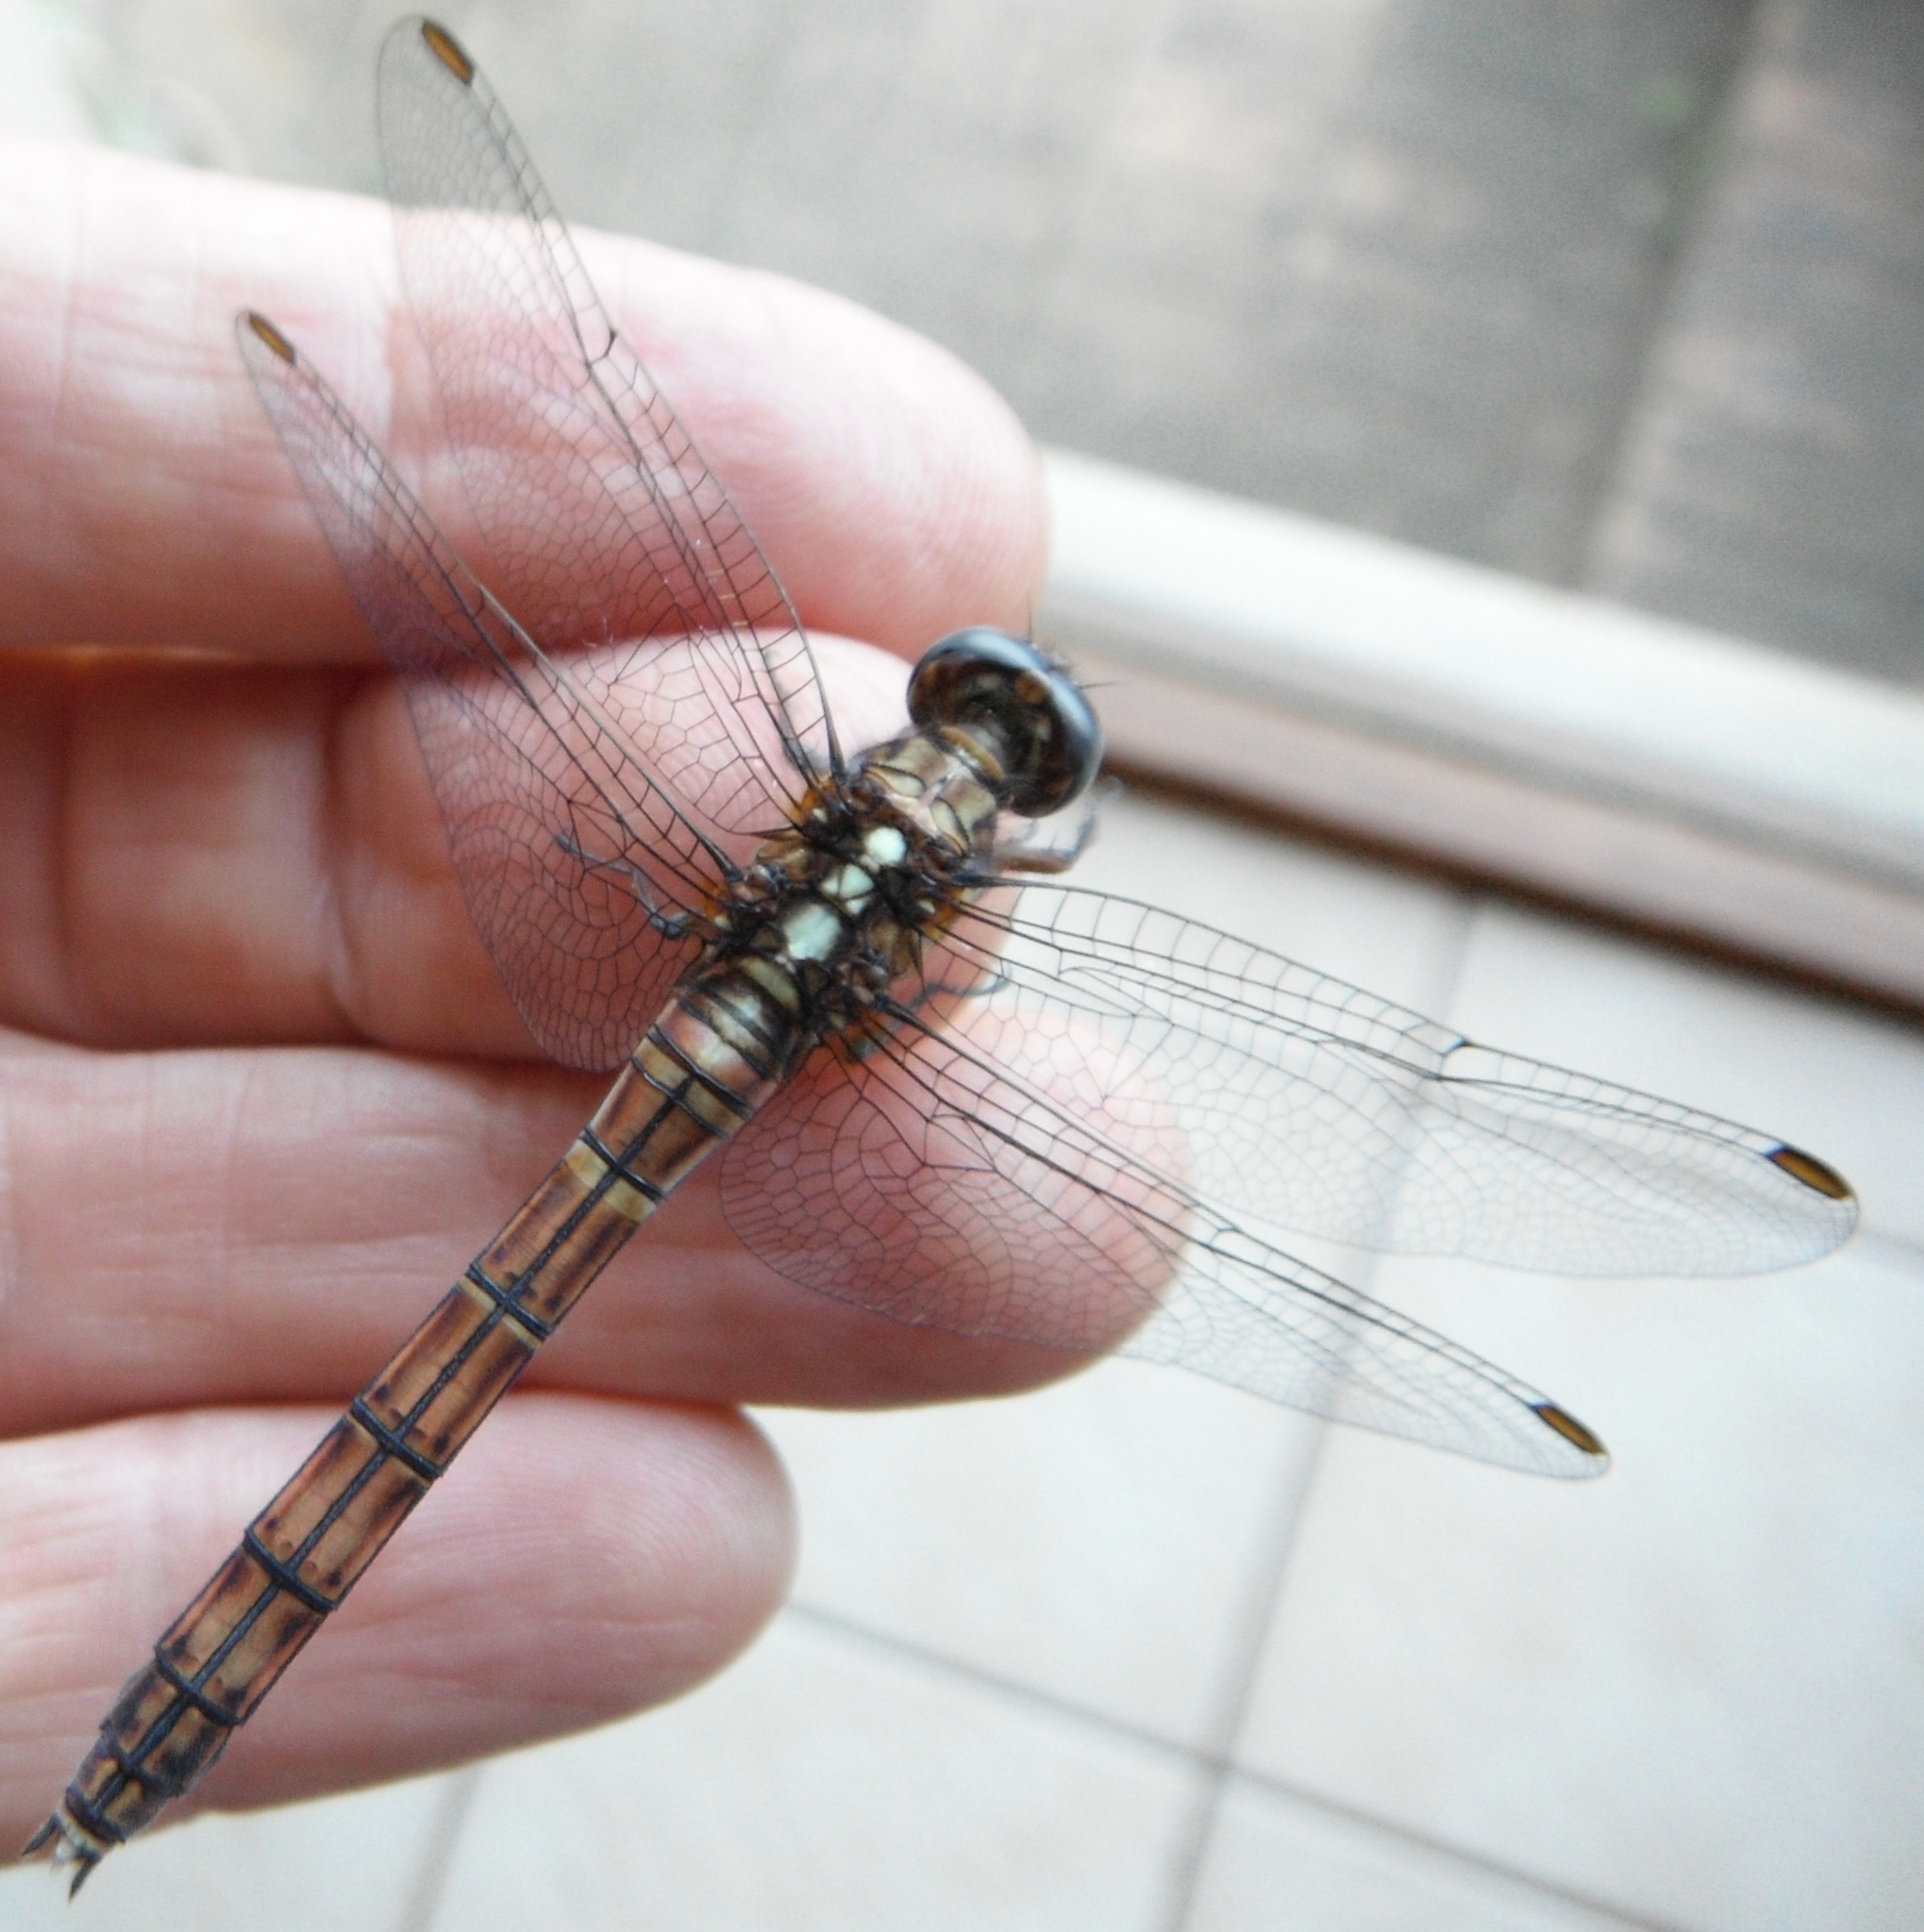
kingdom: Animalia
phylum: Arthropoda
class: Insecta
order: Odonata
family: Libellulidae
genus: Orthetrum
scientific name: Orthetrum chrysostigma
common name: Epaulet skimmer
